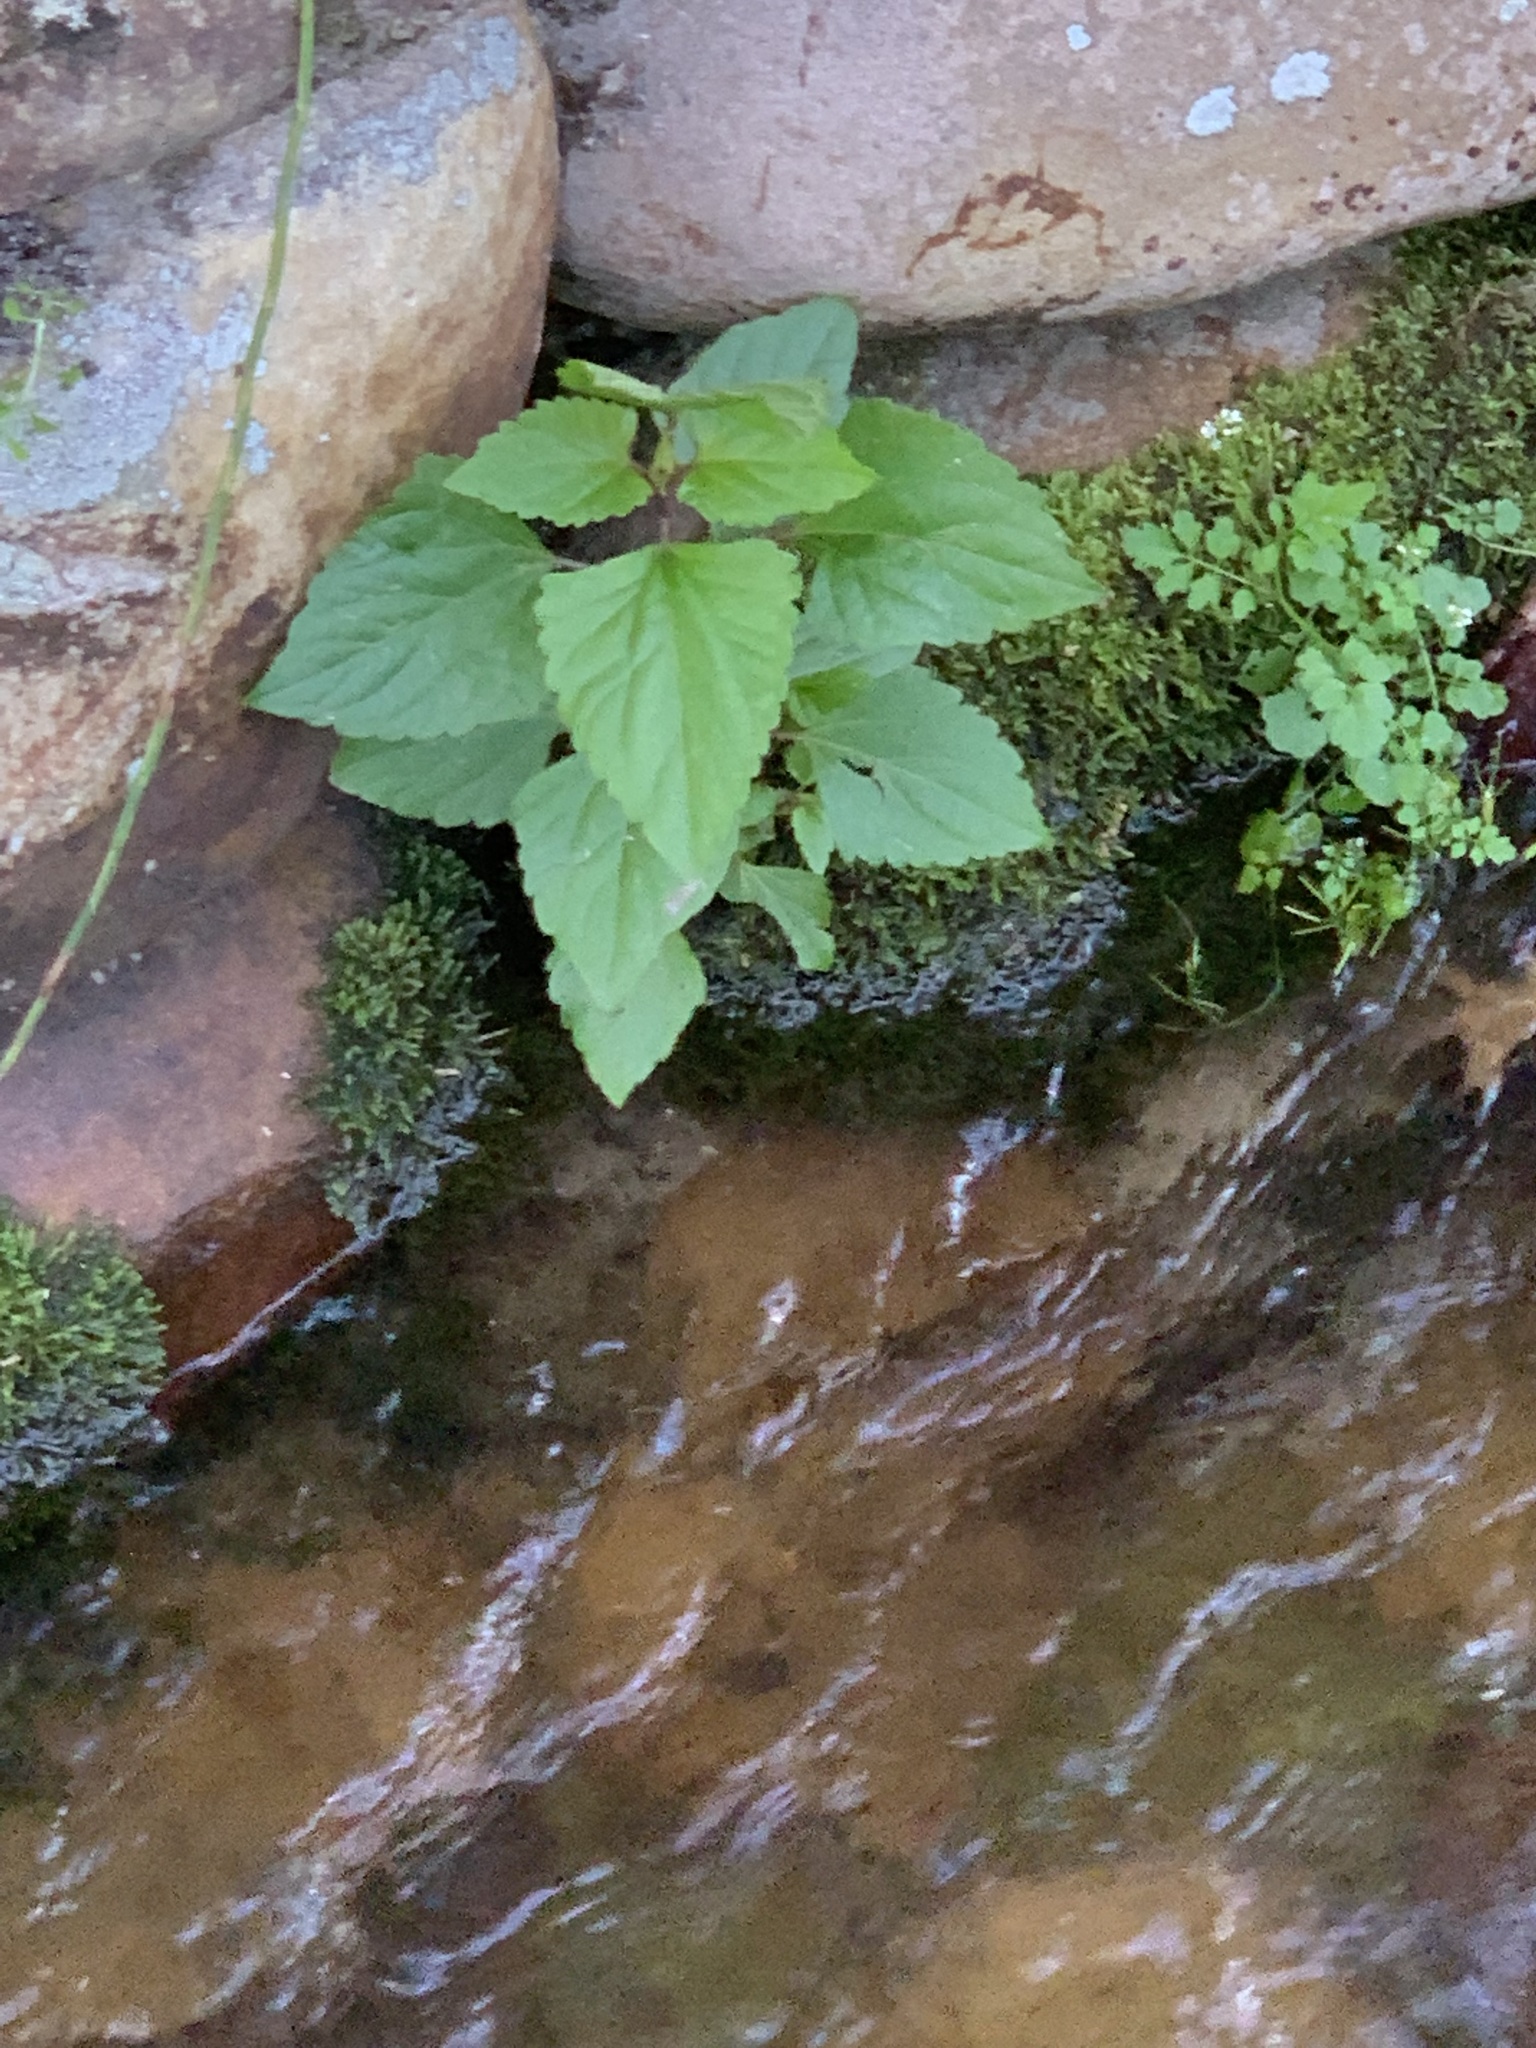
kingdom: Plantae
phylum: Tracheophyta
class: Magnoliopsida
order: Asterales
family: Asteraceae
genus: Ageratina
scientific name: Ageratina adenophora
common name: Sticky snakeroot
